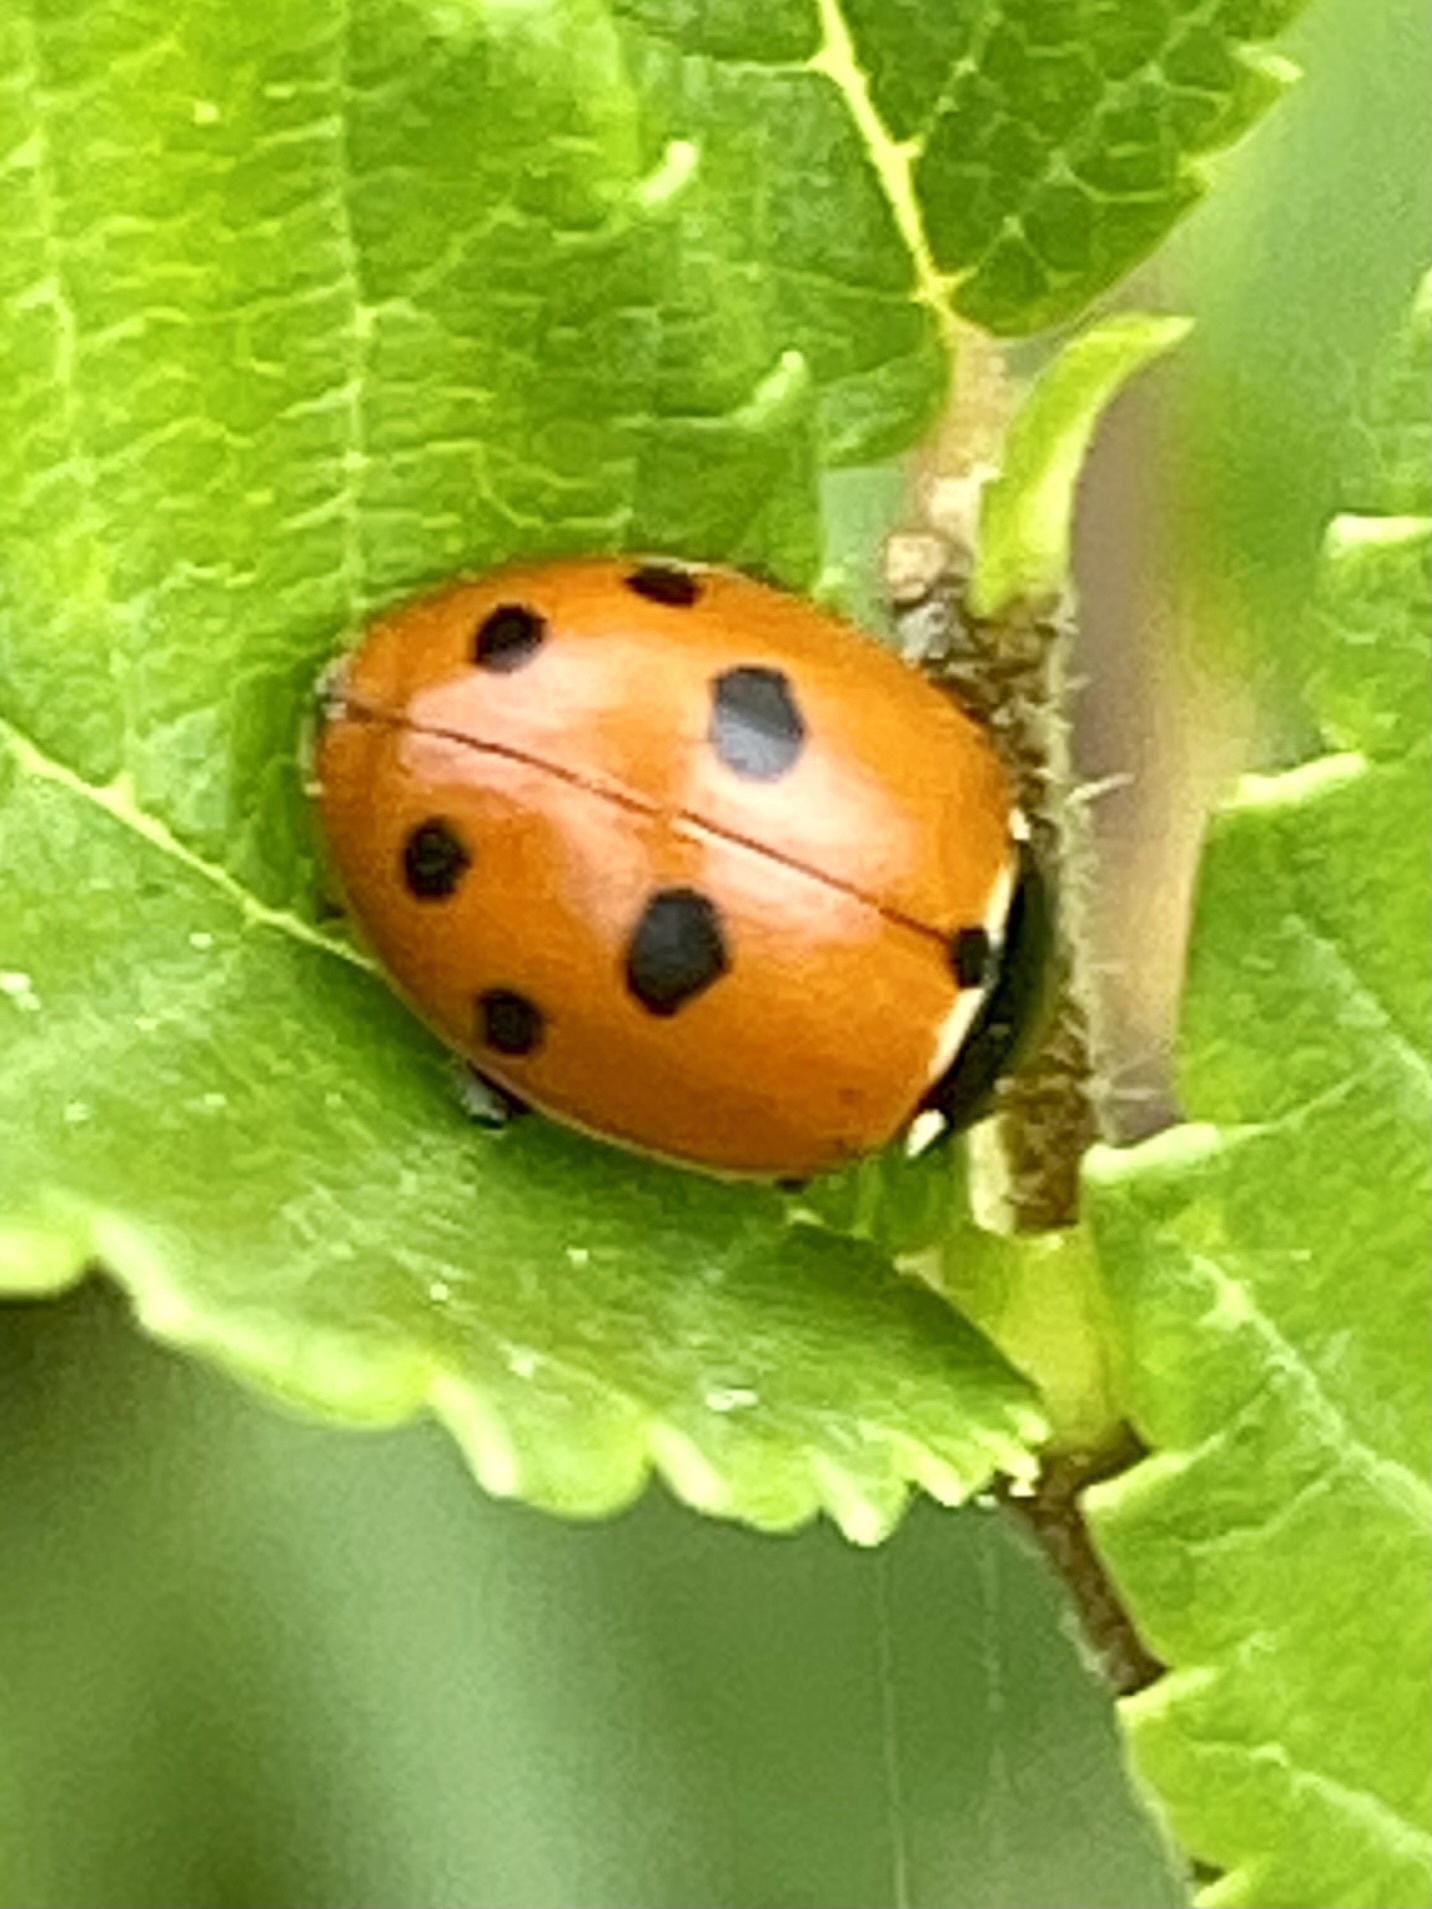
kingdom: Animalia
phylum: Arthropoda
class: Insecta
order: Coleoptera
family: Coccinellidae
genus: Hippodamia
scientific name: Hippodamia
